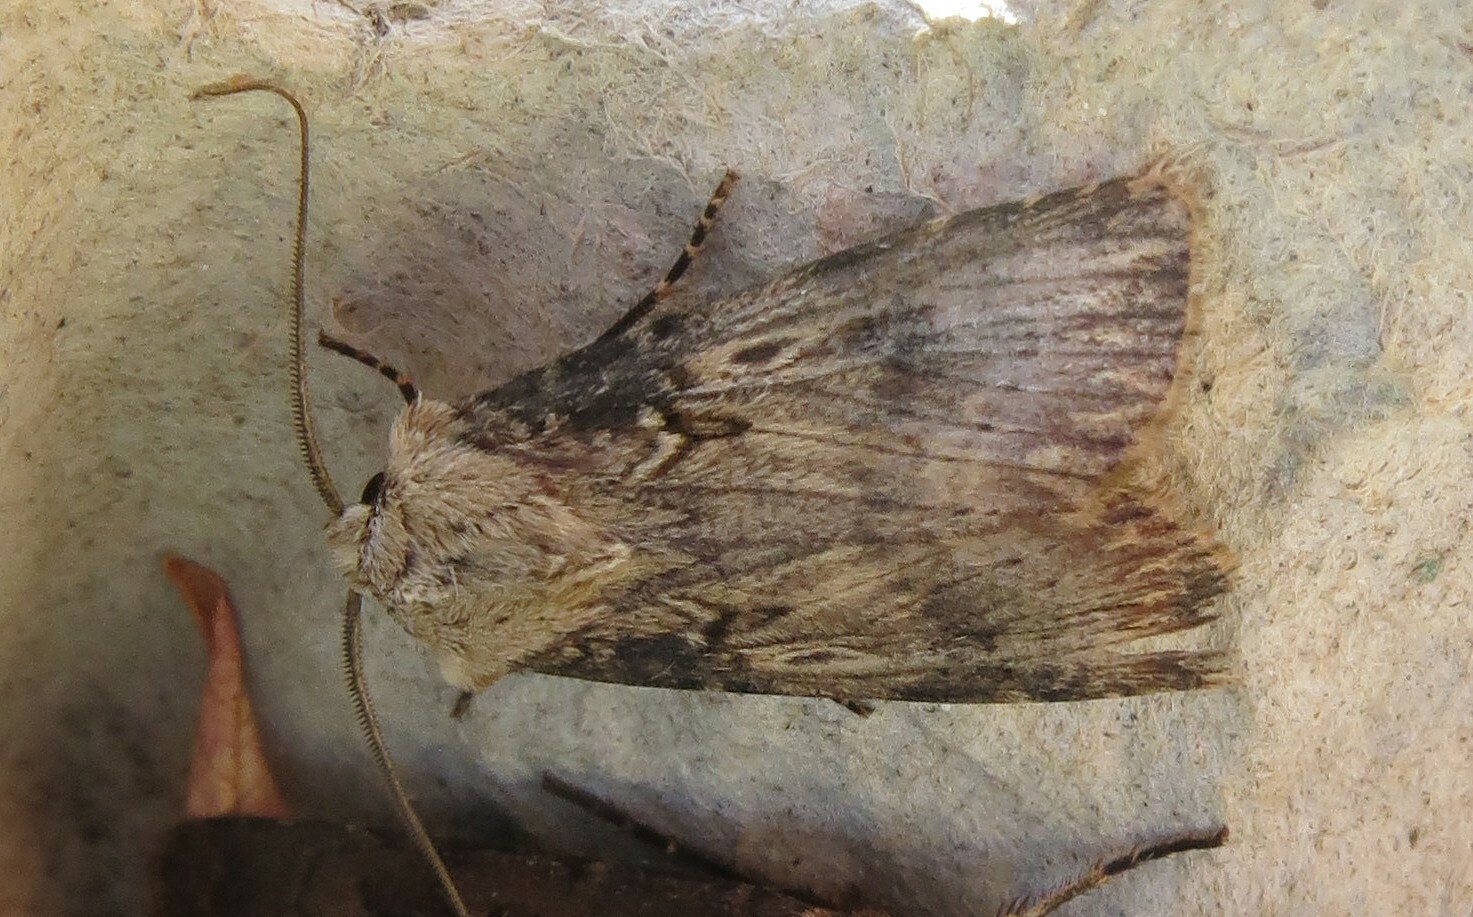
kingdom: Animalia
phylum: Arthropoda
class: Insecta
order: Lepidoptera
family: Noctuidae
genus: Agrotis
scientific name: Agrotis puta
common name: Shuttle-shaped dart
